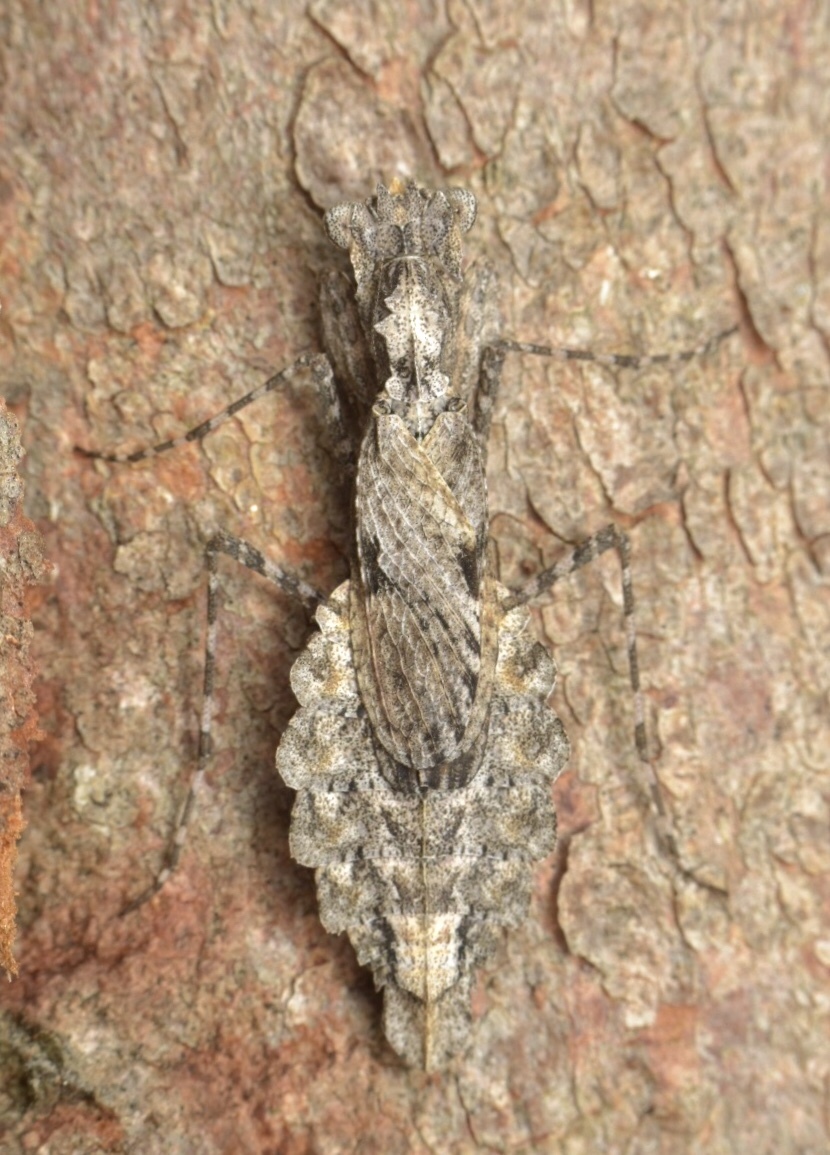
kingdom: Animalia
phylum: Arthropoda
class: Insecta
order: Mantodea
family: Nanomantidae
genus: Metoxypilus
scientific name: Metoxypilus lobifrons
